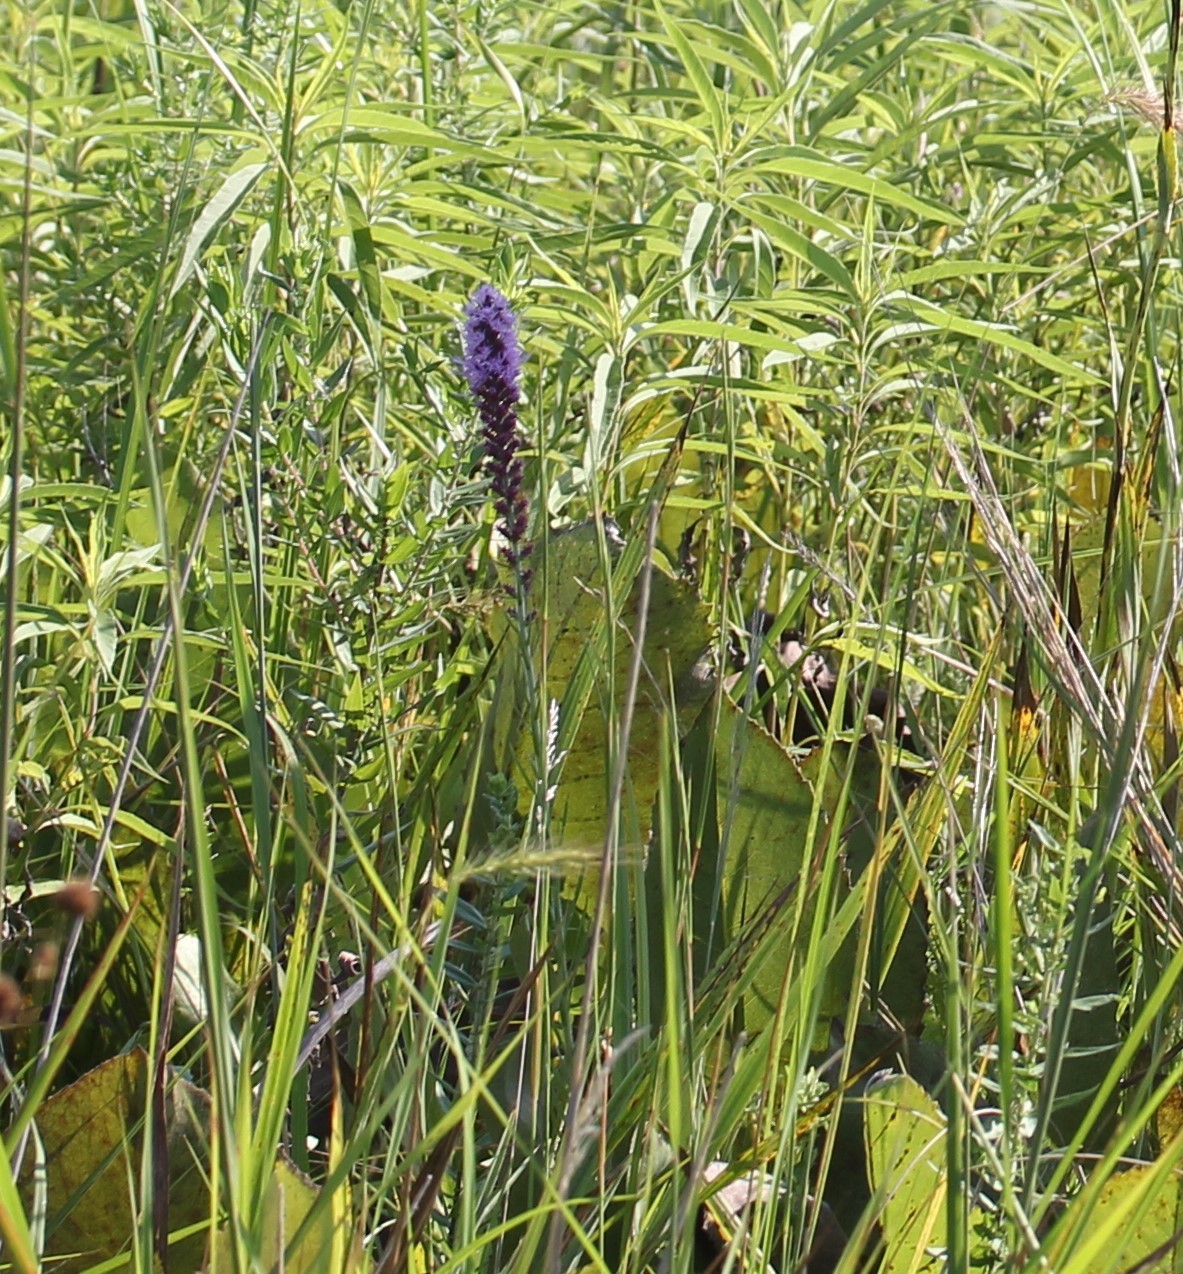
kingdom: Plantae
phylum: Tracheophyta
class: Magnoliopsida
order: Asterales
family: Asteraceae
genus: Liatris
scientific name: Liatris pycnostachya
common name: Cattail gayfeather
